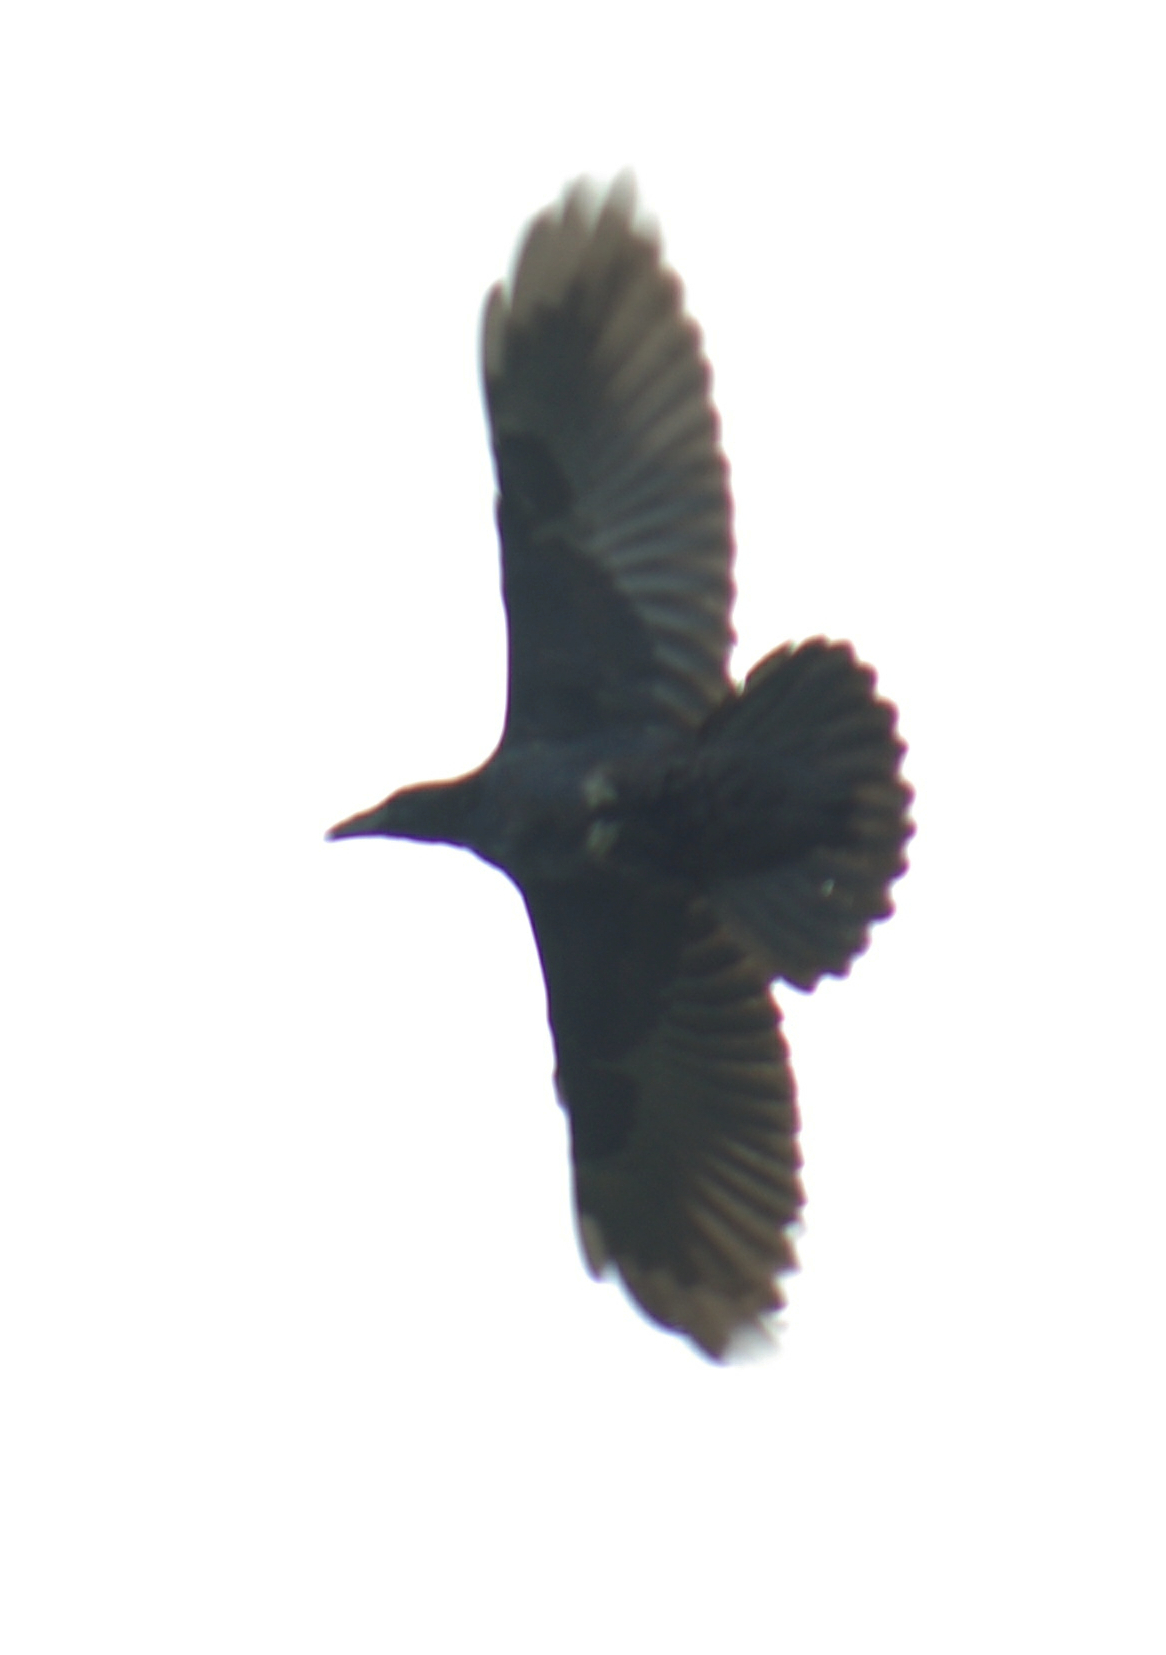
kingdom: Animalia
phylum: Chordata
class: Aves
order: Passeriformes
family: Corvidae
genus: Corvus
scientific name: Corvus brachyrhynchos
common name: American crow
